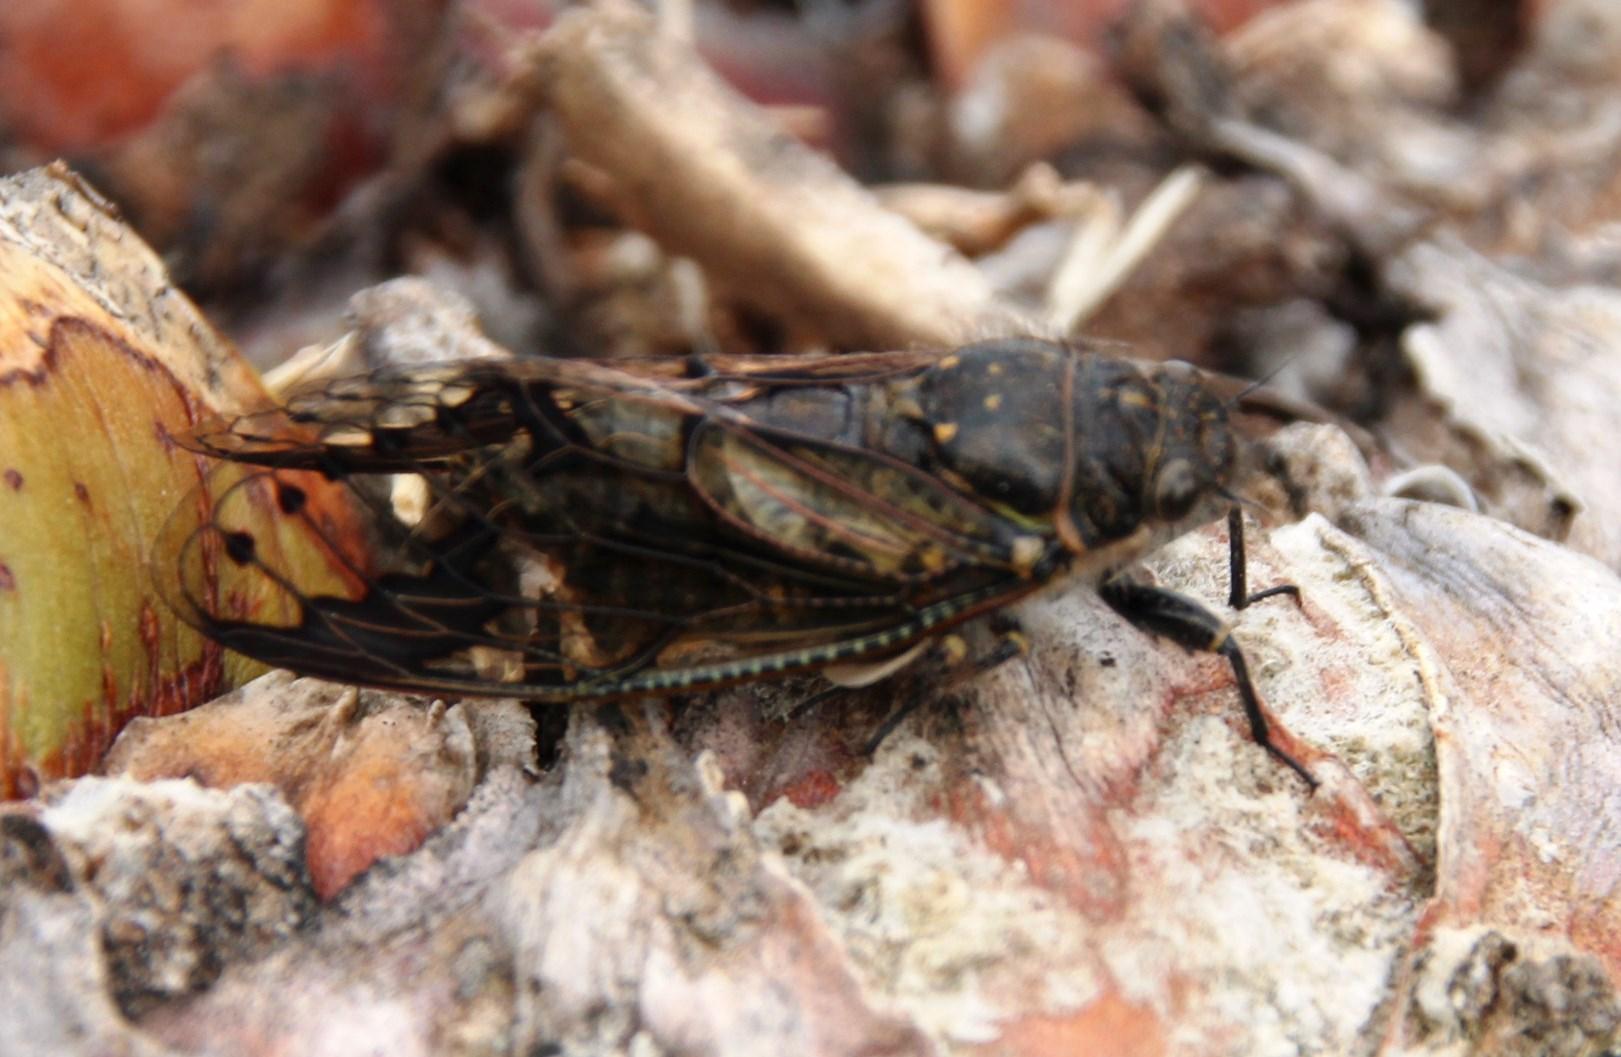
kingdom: Animalia
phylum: Arthropoda
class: Insecta
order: Hemiptera
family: Cicadidae
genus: Quintilia
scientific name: Quintilia wealei
